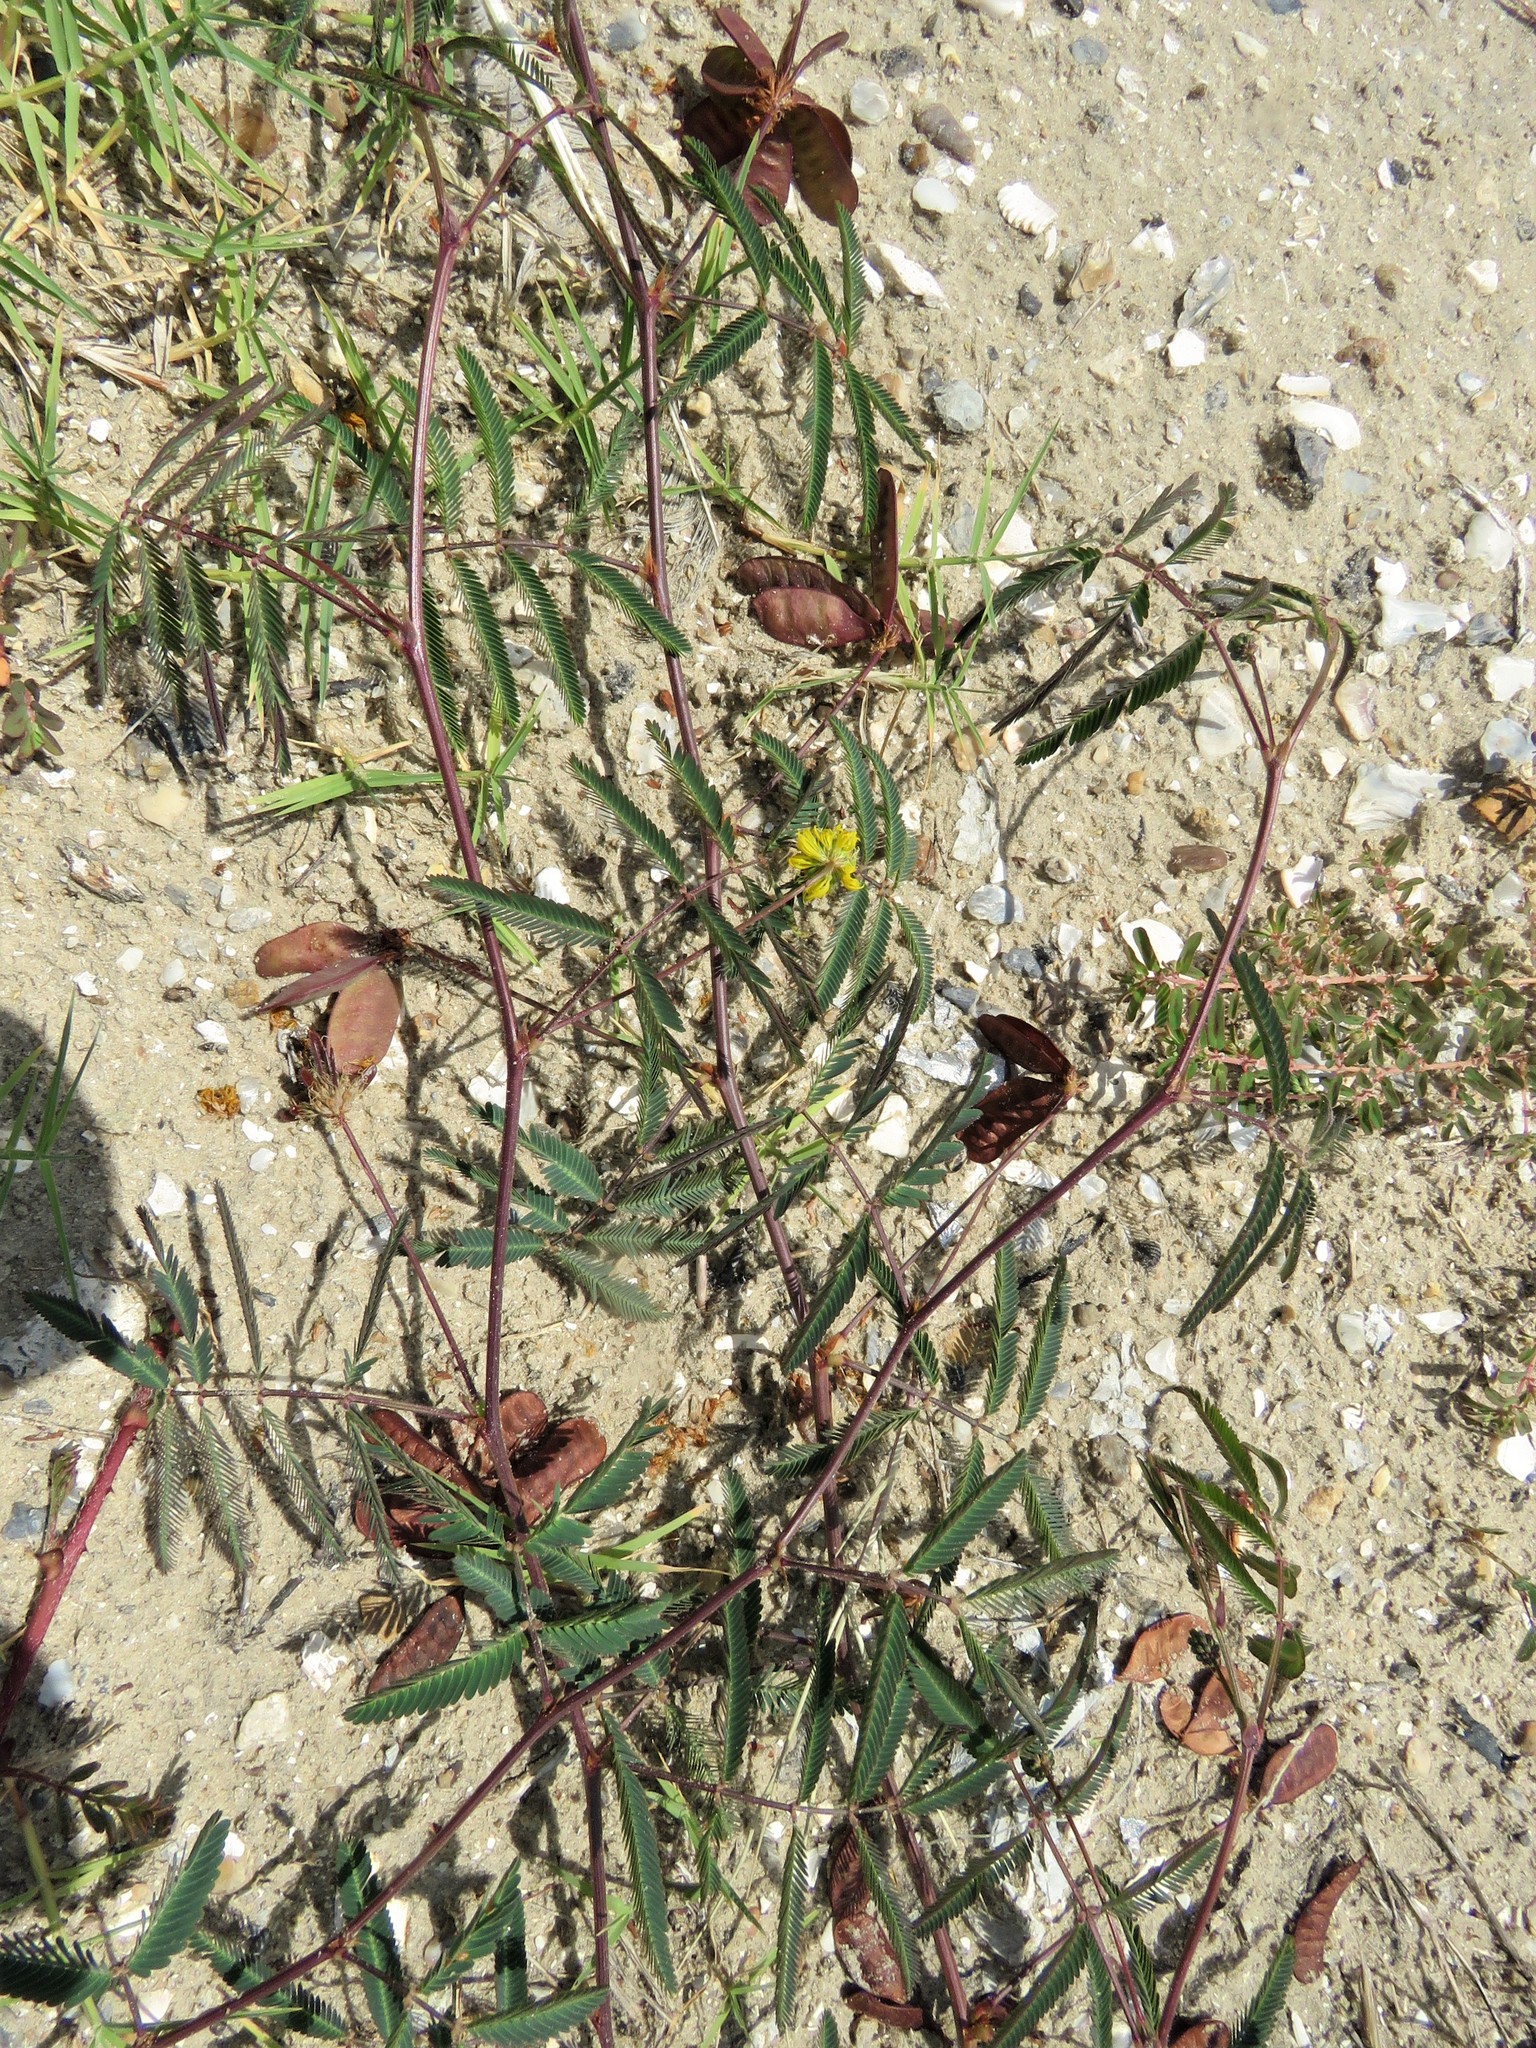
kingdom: Plantae
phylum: Tracheophyta
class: Magnoliopsida
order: Fabales
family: Fabaceae
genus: Neptunia
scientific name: Neptunia pubescens
